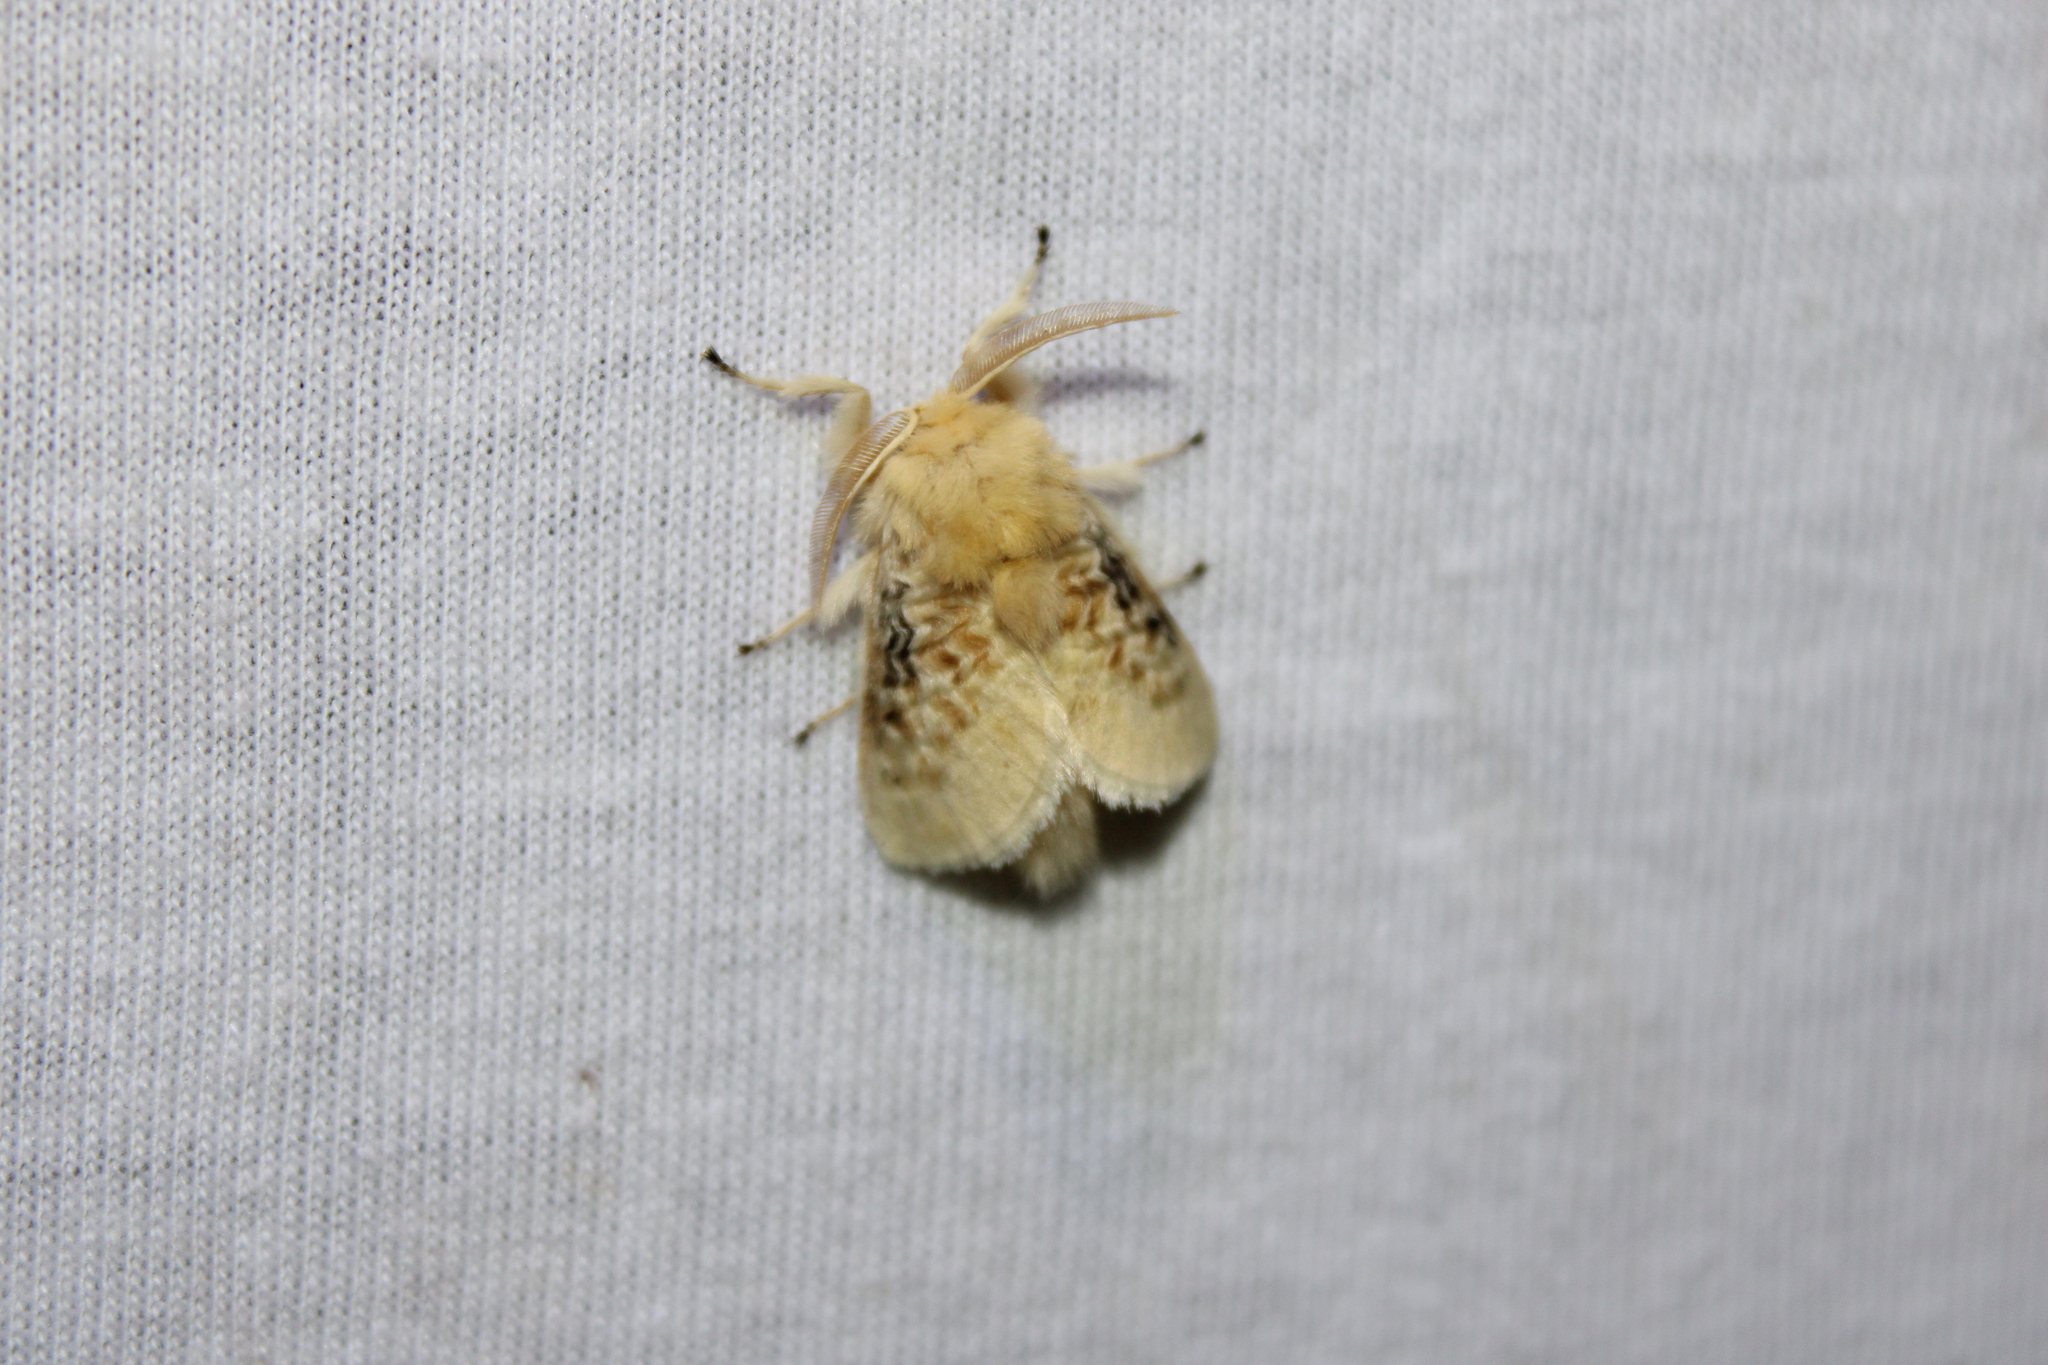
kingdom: Animalia
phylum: Arthropoda
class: Insecta
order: Lepidoptera
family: Megalopygidae
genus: Megalopyge
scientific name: Megalopyge crispata
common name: Black-waved flannel moth
